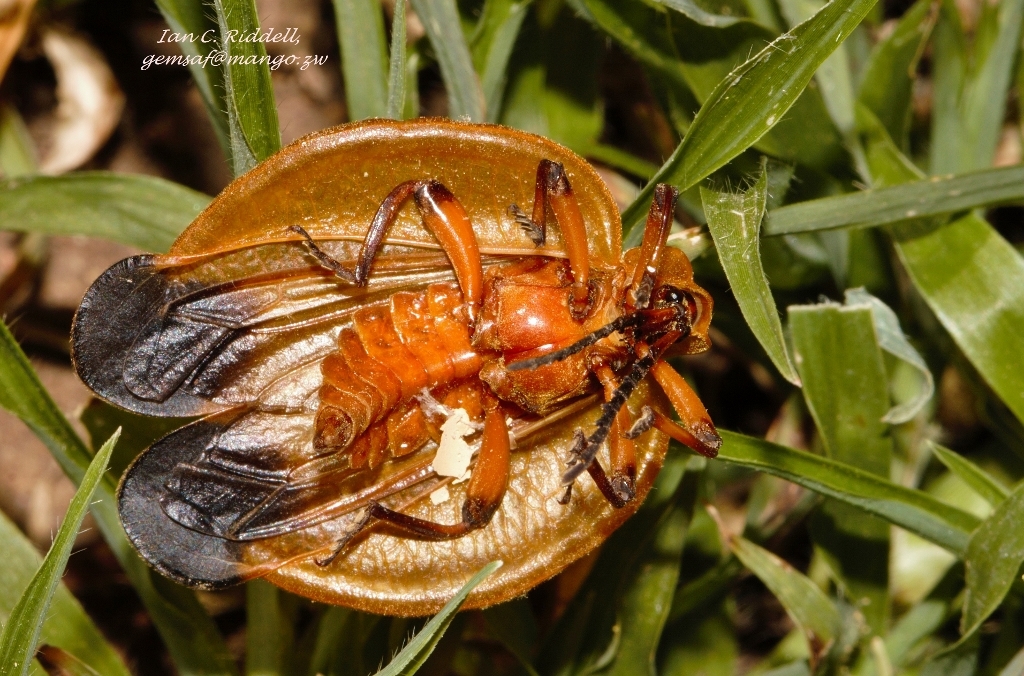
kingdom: Animalia
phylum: Arthropoda
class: Insecta
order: Coleoptera
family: Lycidae
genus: Lycus
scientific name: Lycus
